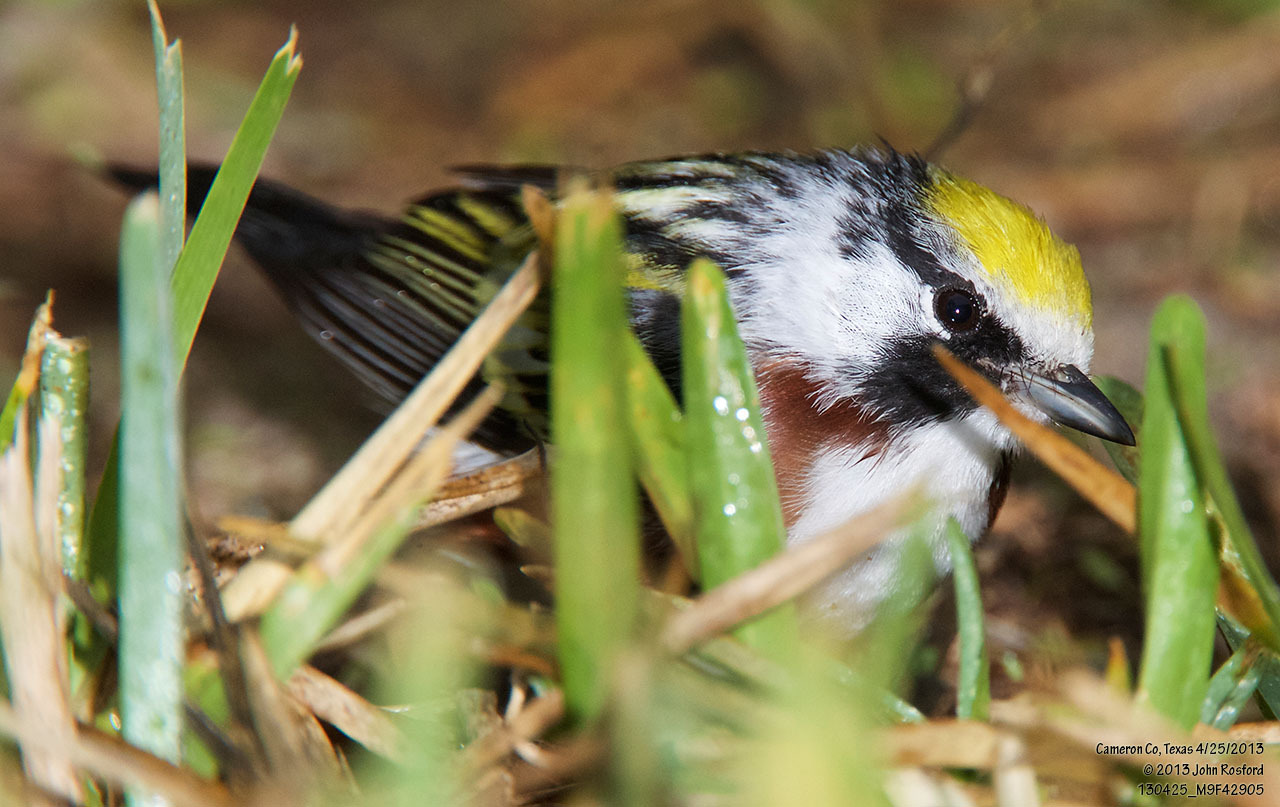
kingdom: Animalia
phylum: Chordata
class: Aves
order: Passeriformes
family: Parulidae
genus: Setophaga
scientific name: Setophaga pensylvanica
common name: Chestnut-sided warbler
